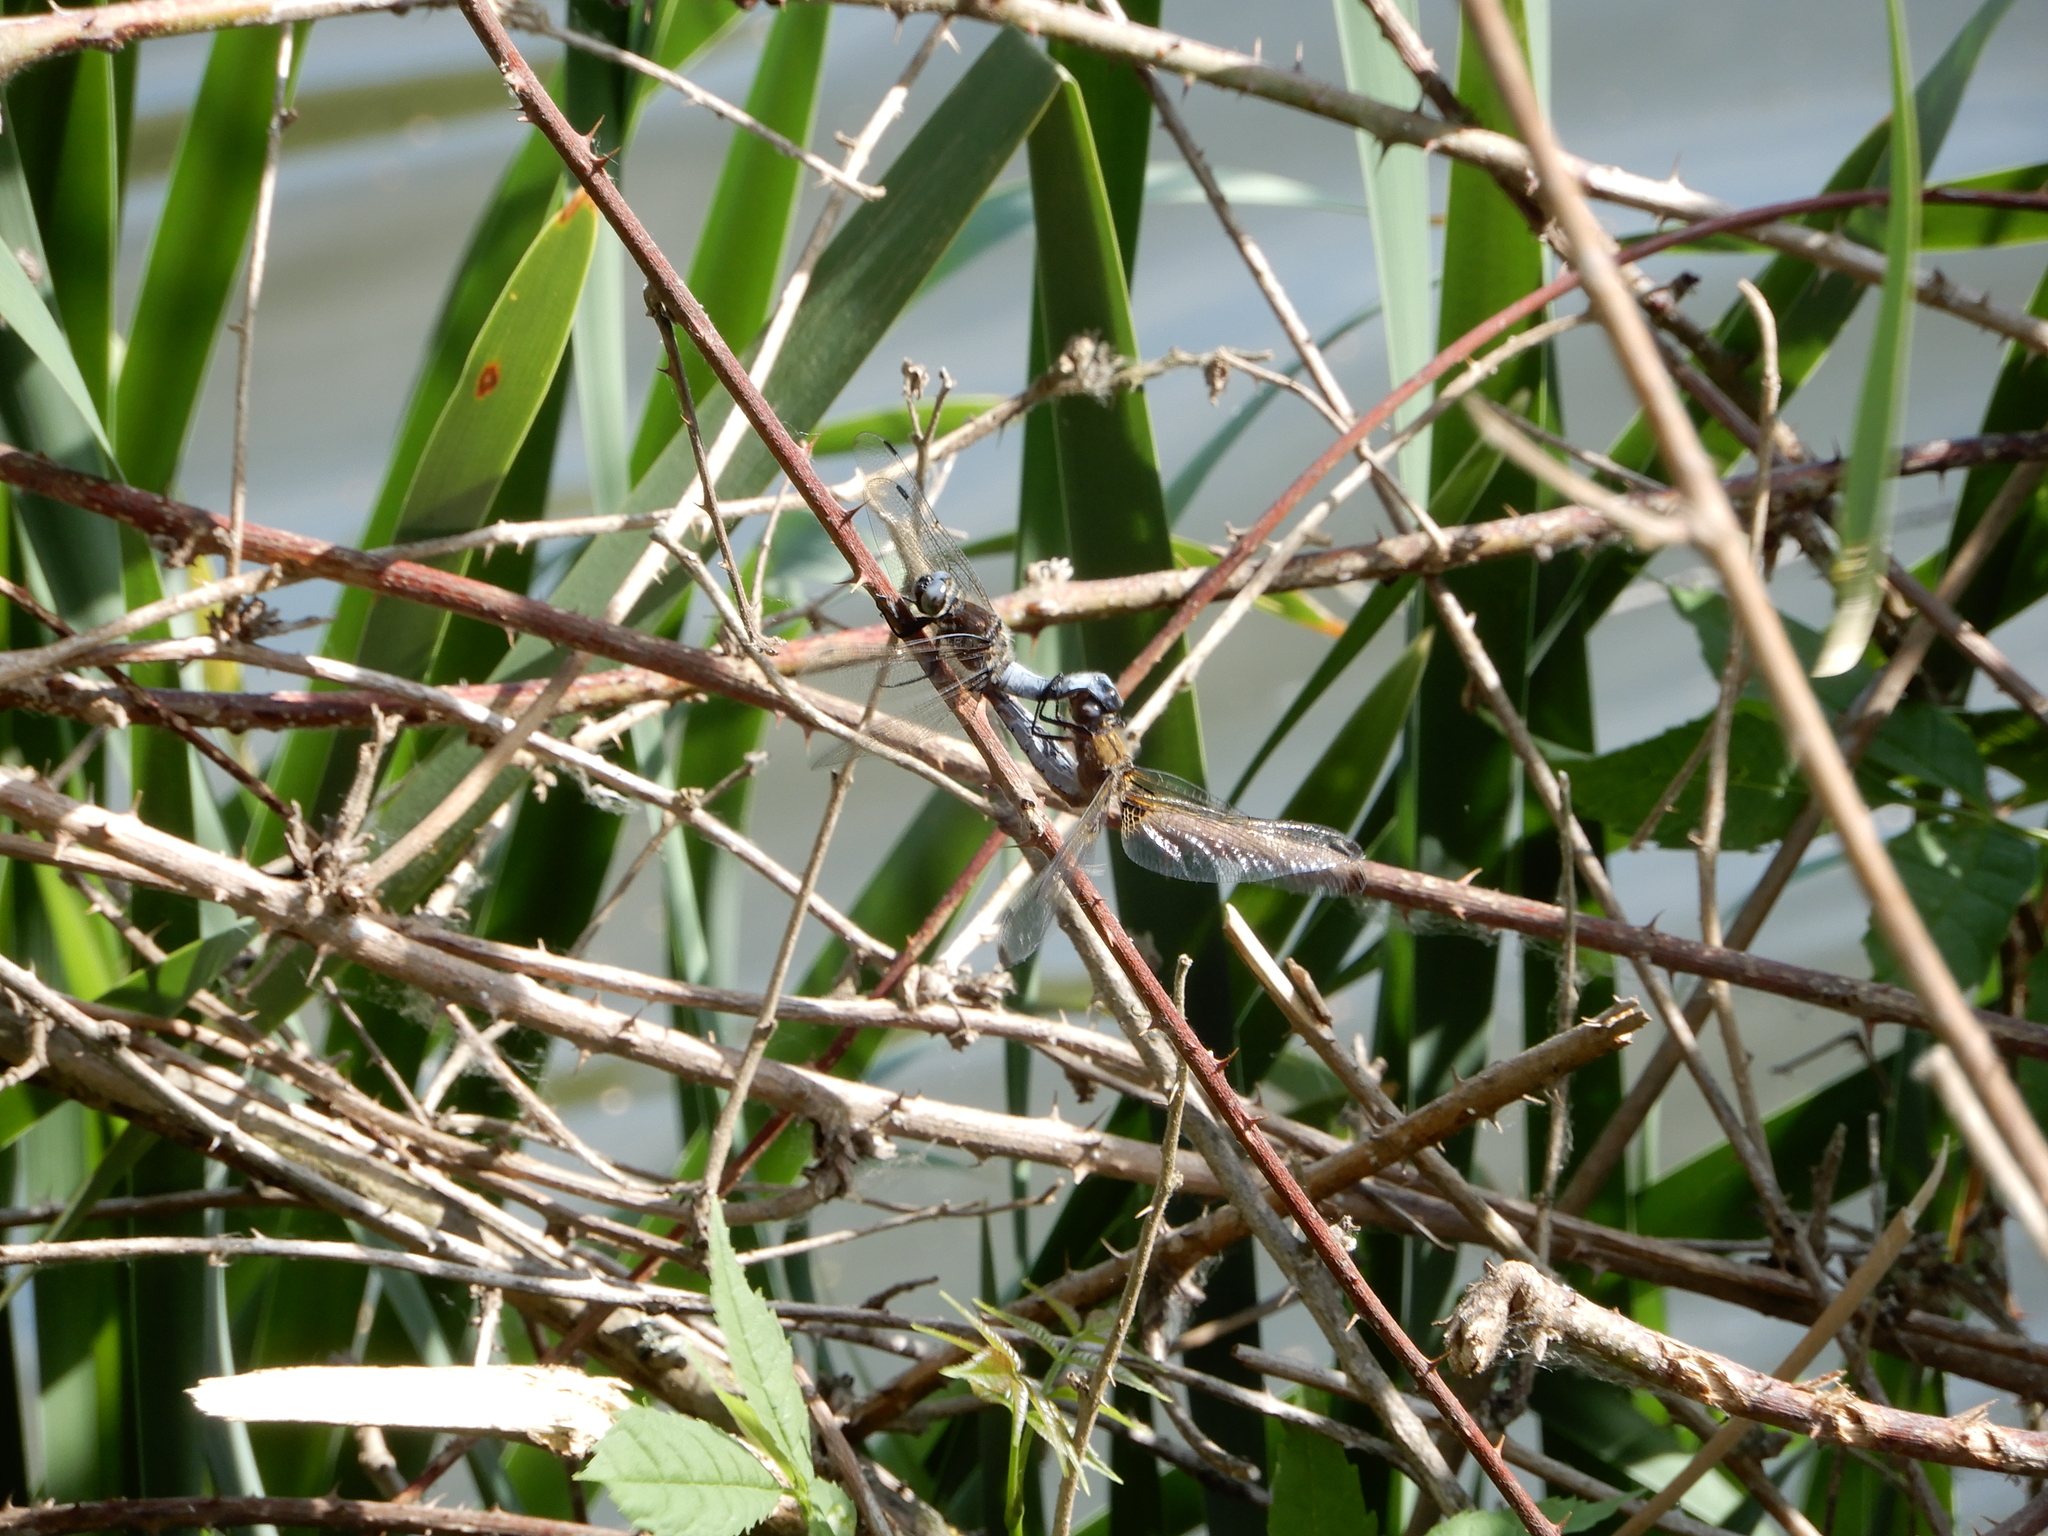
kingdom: Animalia
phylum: Arthropoda
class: Insecta
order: Odonata
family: Libellulidae
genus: Libellula
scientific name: Libellula fulva
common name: Blue chaser
